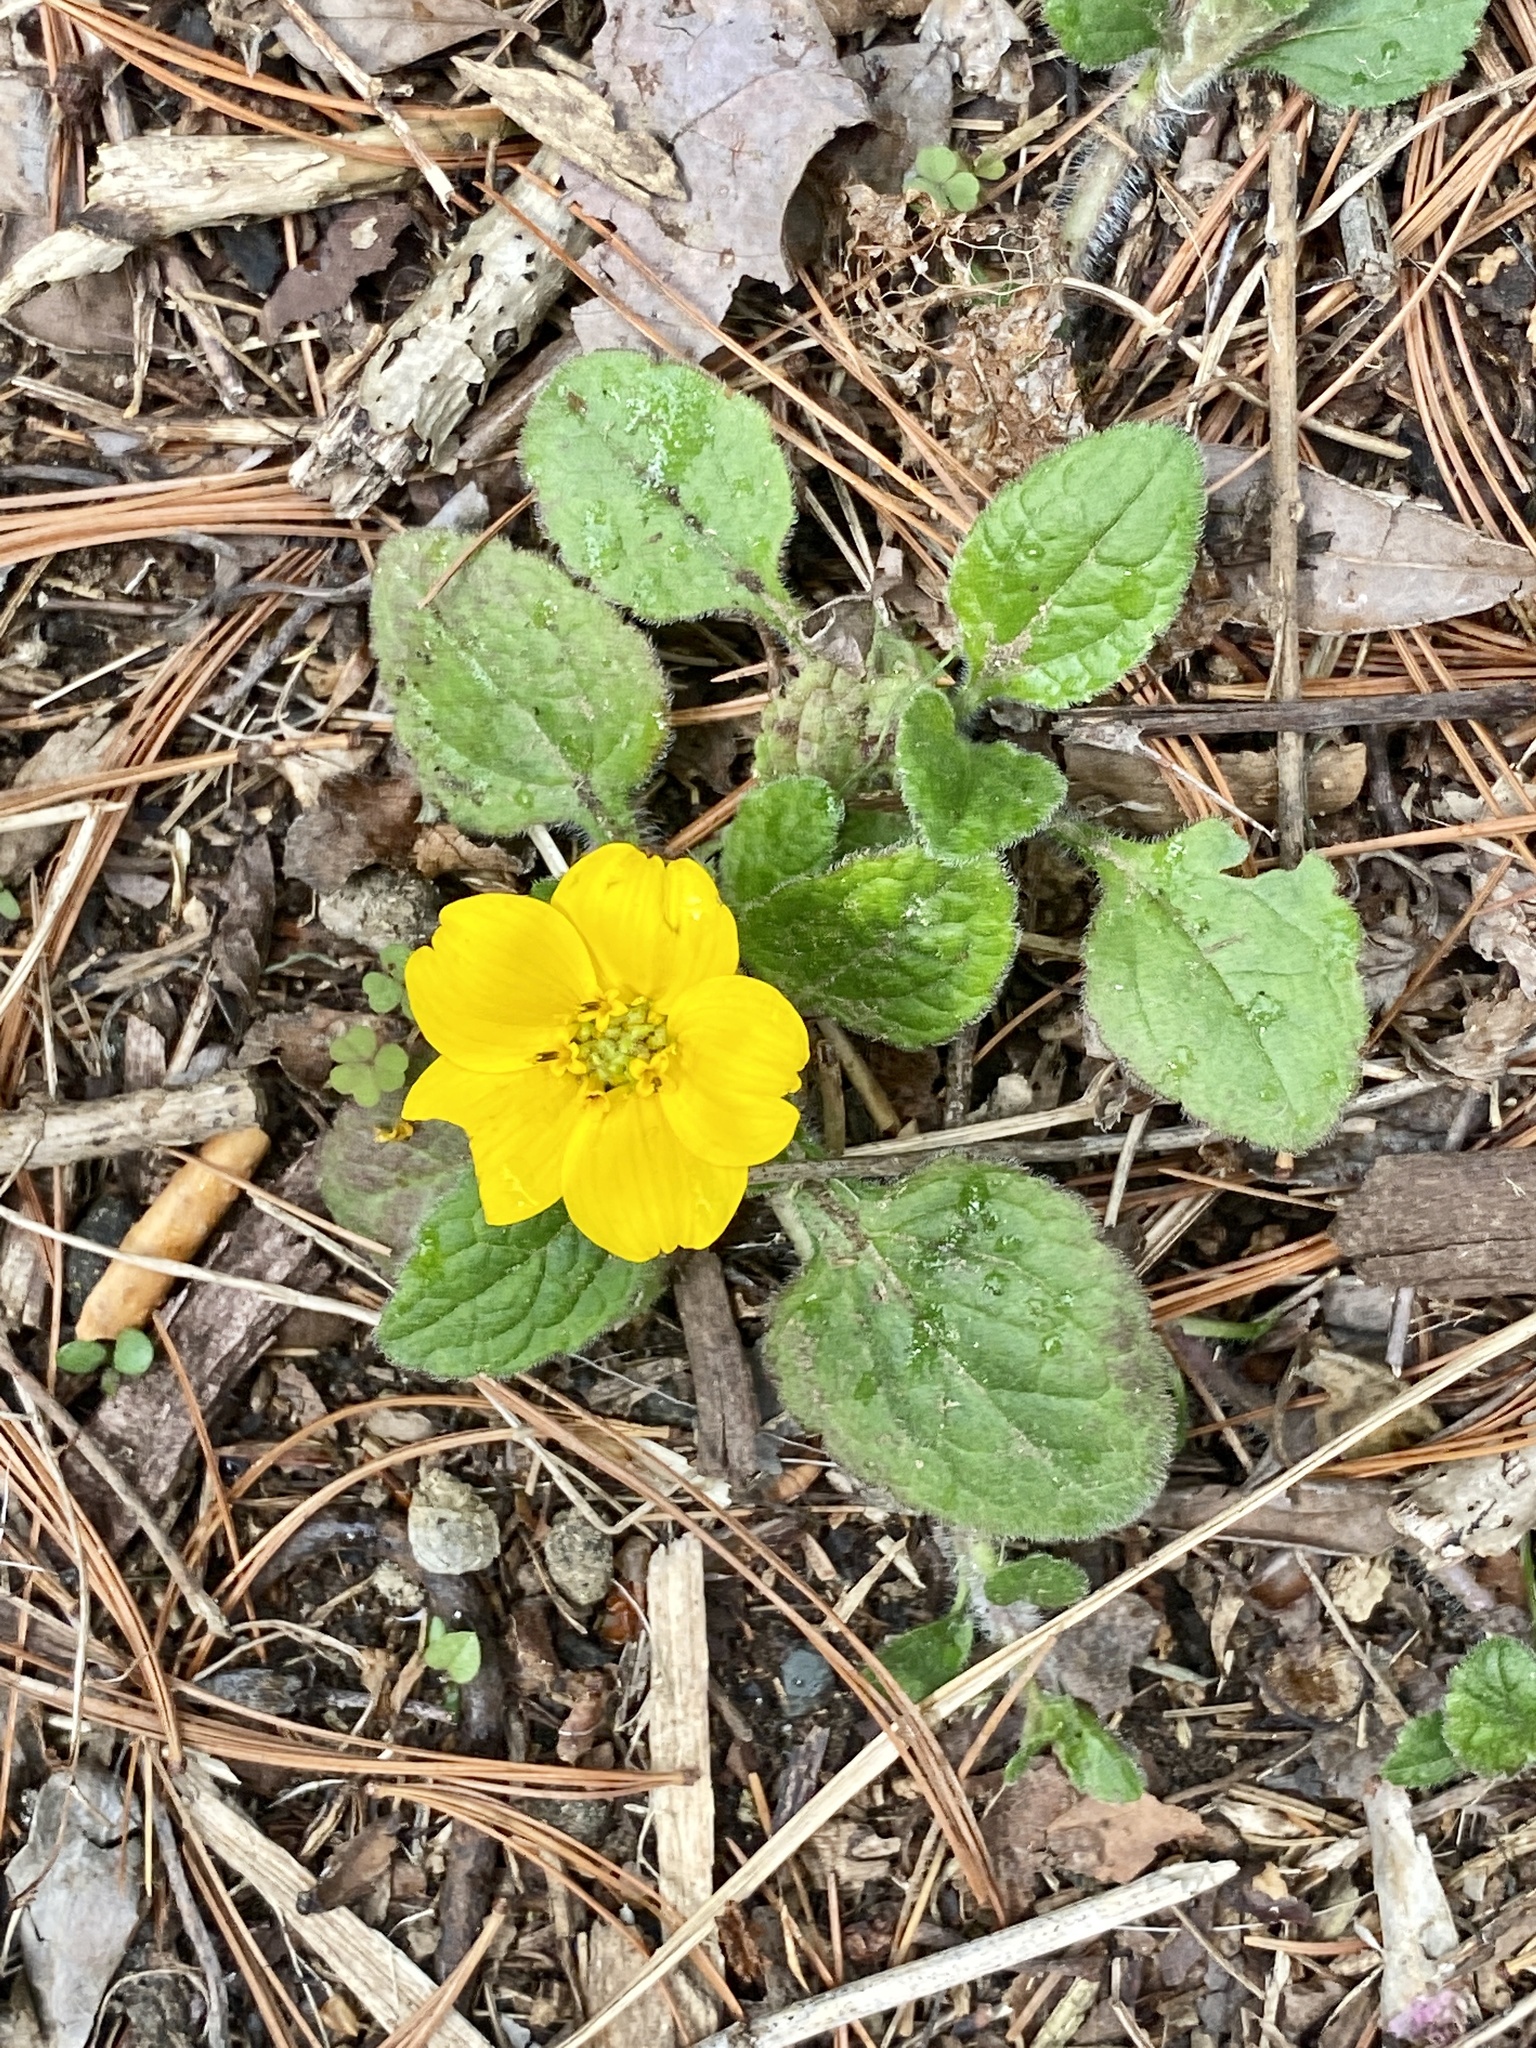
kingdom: Plantae
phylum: Tracheophyta
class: Magnoliopsida
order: Asterales
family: Asteraceae
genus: Chrysogonum
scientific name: Chrysogonum virginianum
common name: Golden-knee
